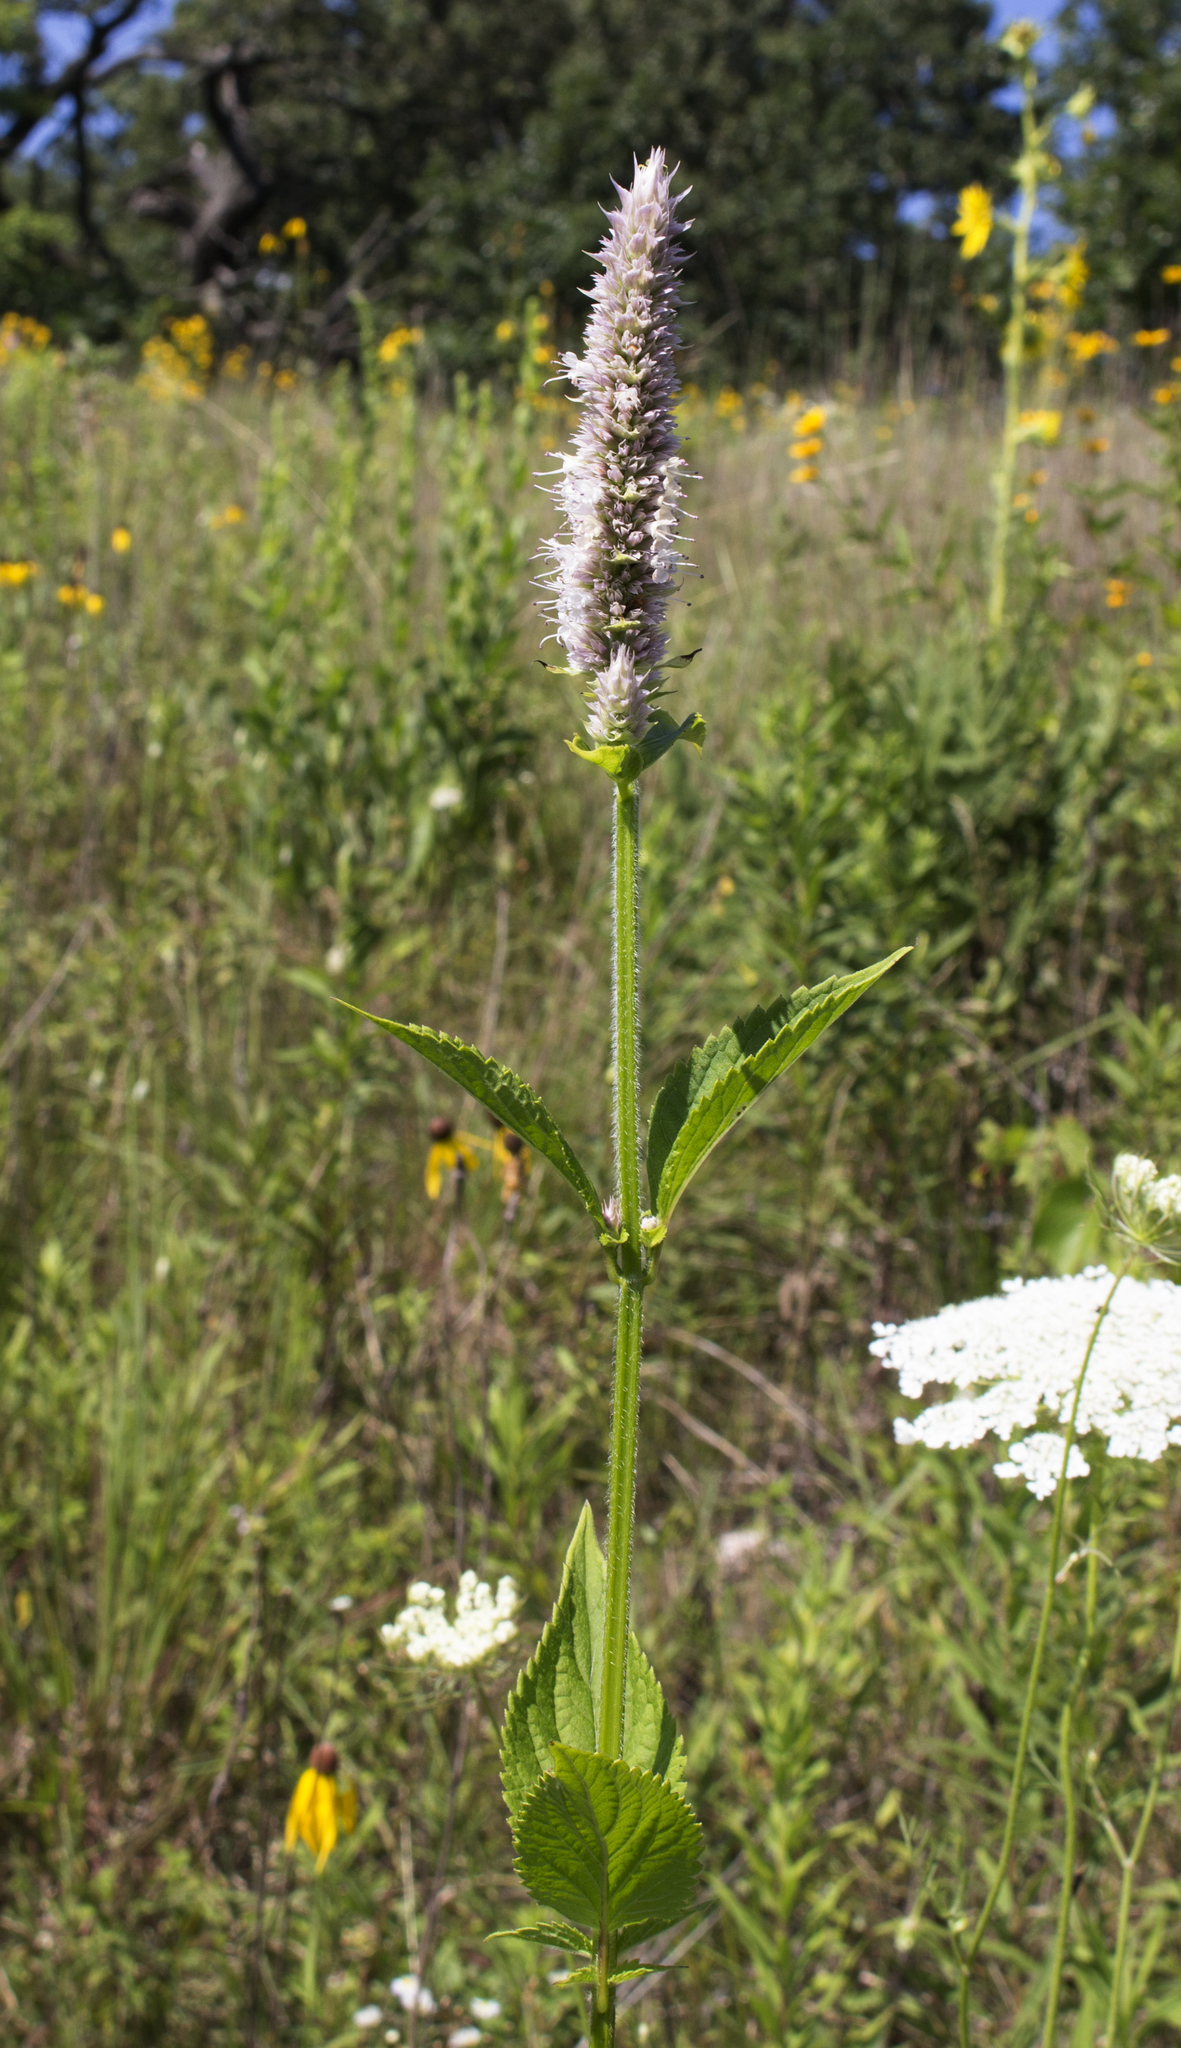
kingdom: Plantae
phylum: Tracheophyta
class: Magnoliopsida
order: Lamiales
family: Lamiaceae
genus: Agastache
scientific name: Agastache scrophulariifolia
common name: Figwort giant hyssop
